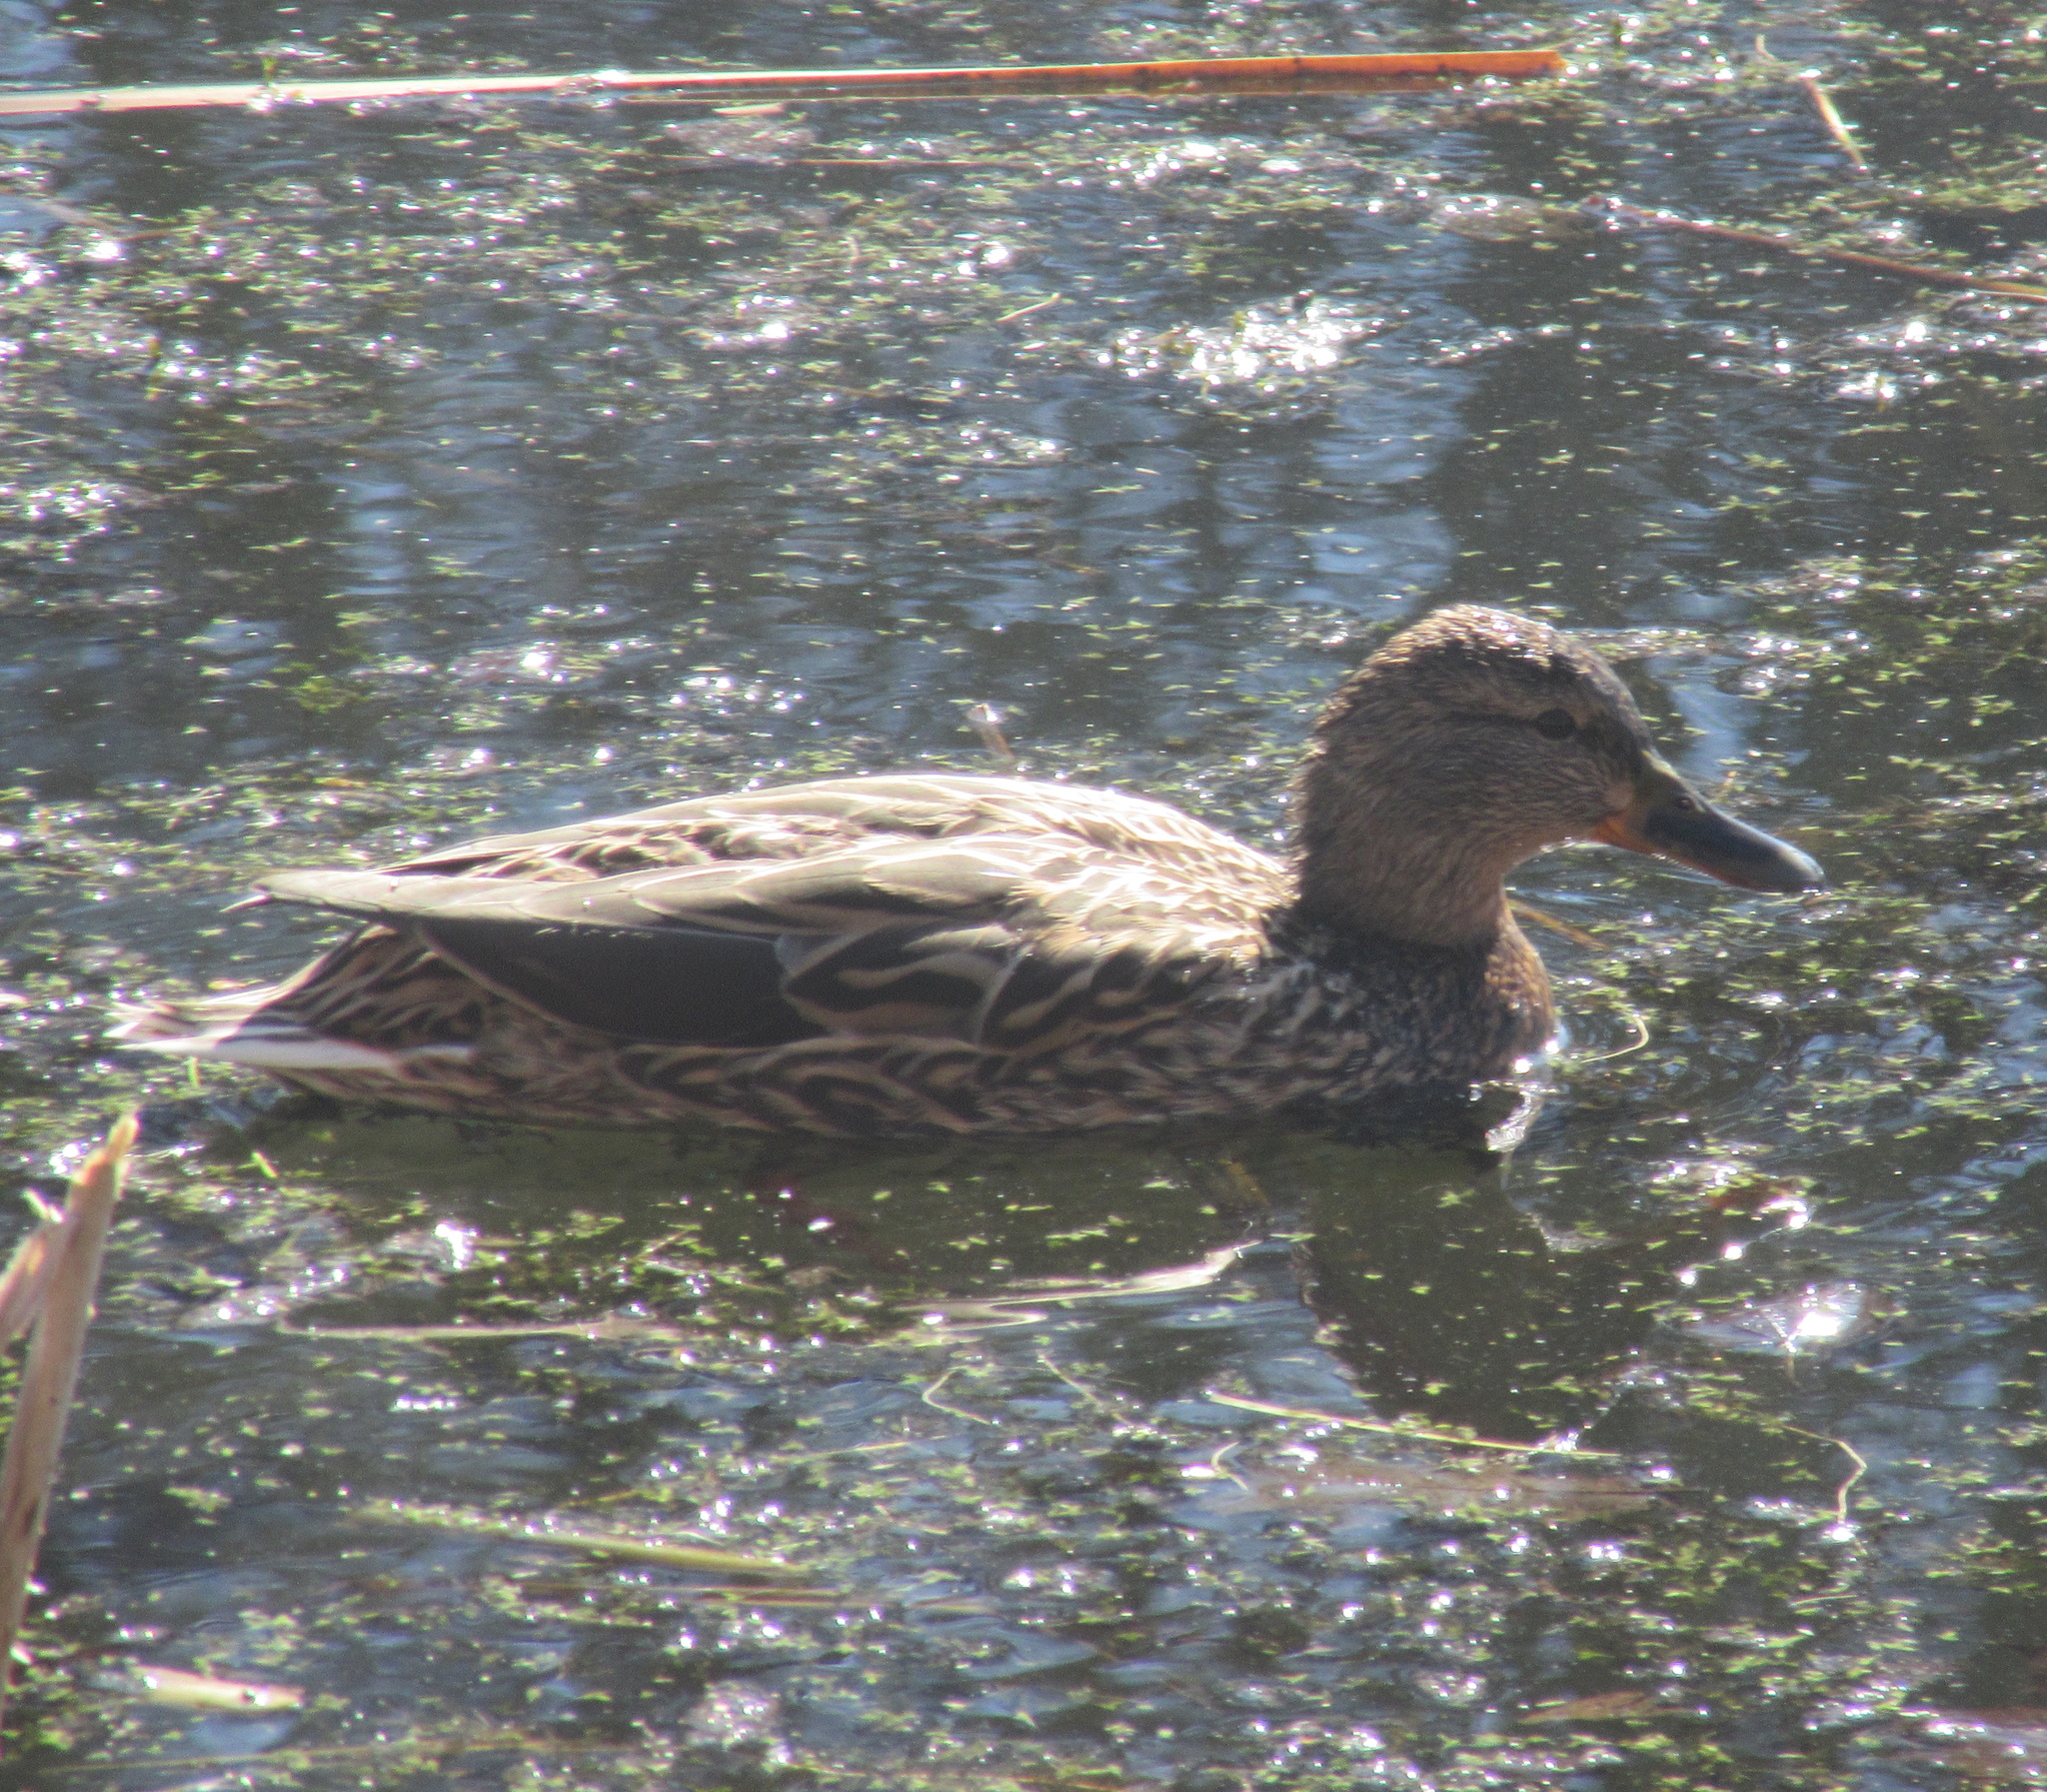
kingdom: Animalia
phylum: Chordata
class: Aves
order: Anseriformes
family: Anatidae
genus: Anas
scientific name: Anas platyrhynchos
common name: Mallard
